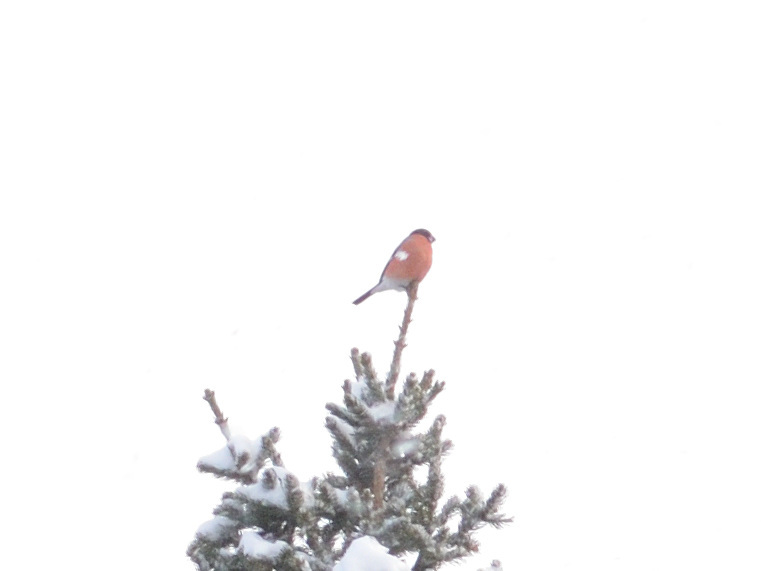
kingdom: Animalia
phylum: Chordata
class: Aves
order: Passeriformes
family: Fringillidae
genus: Pyrrhula
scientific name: Pyrrhula pyrrhula
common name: Eurasian bullfinch
